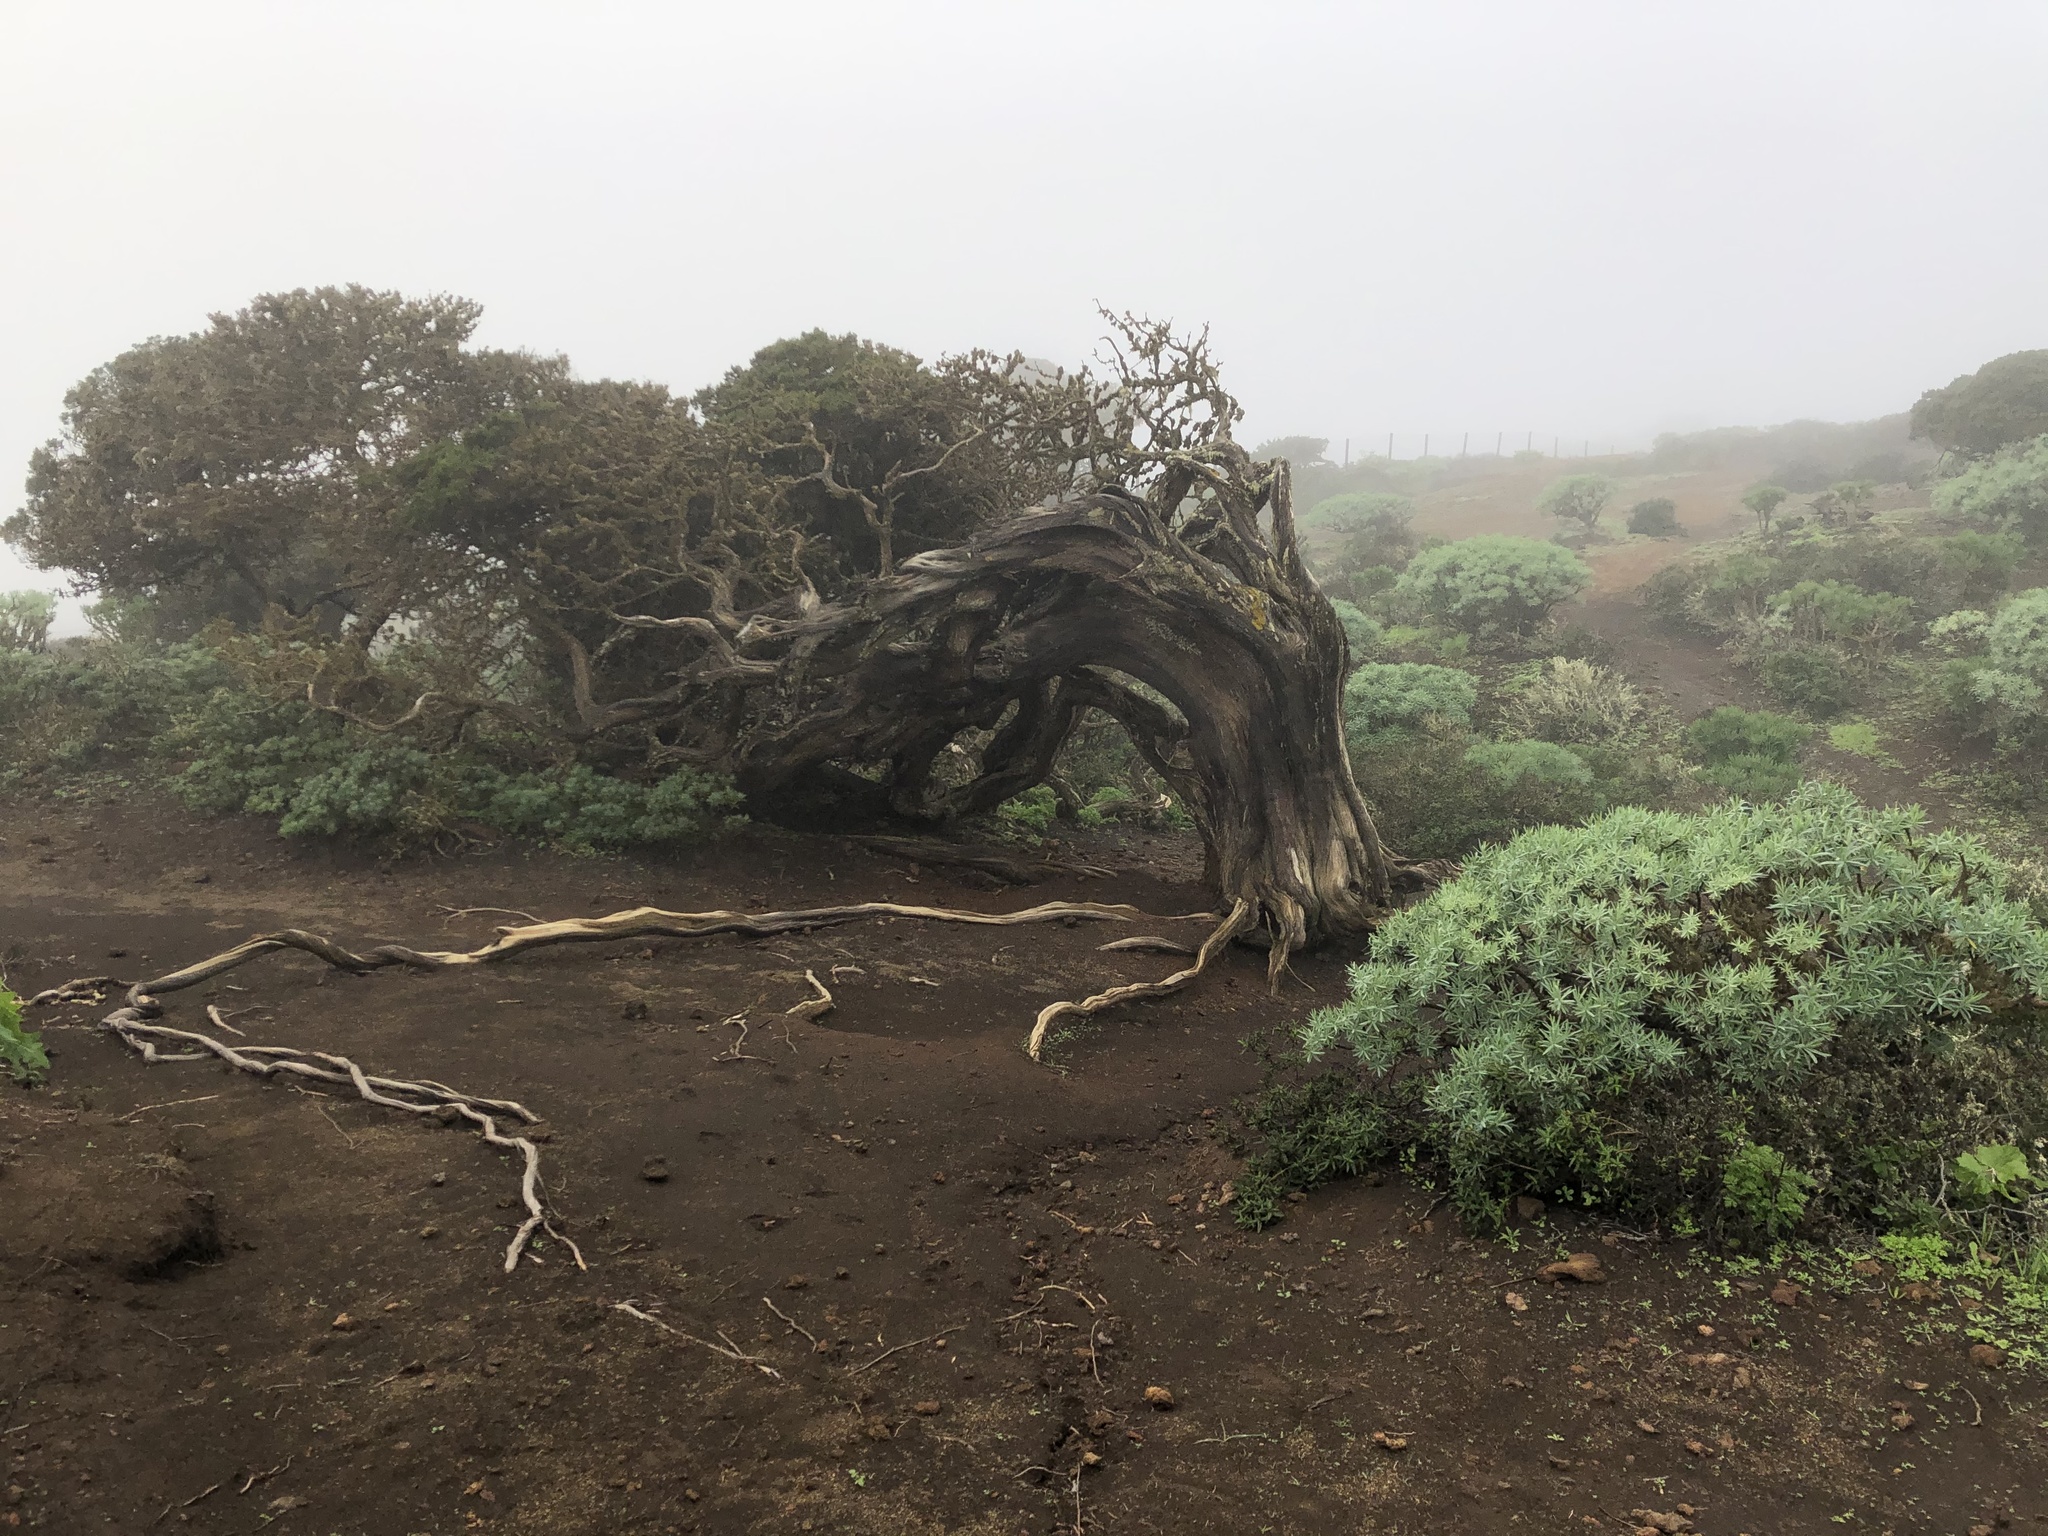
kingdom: Plantae
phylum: Tracheophyta
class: Pinopsida
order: Pinales
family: Cupressaceae
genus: Juniperus
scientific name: Juniperus canariensis
